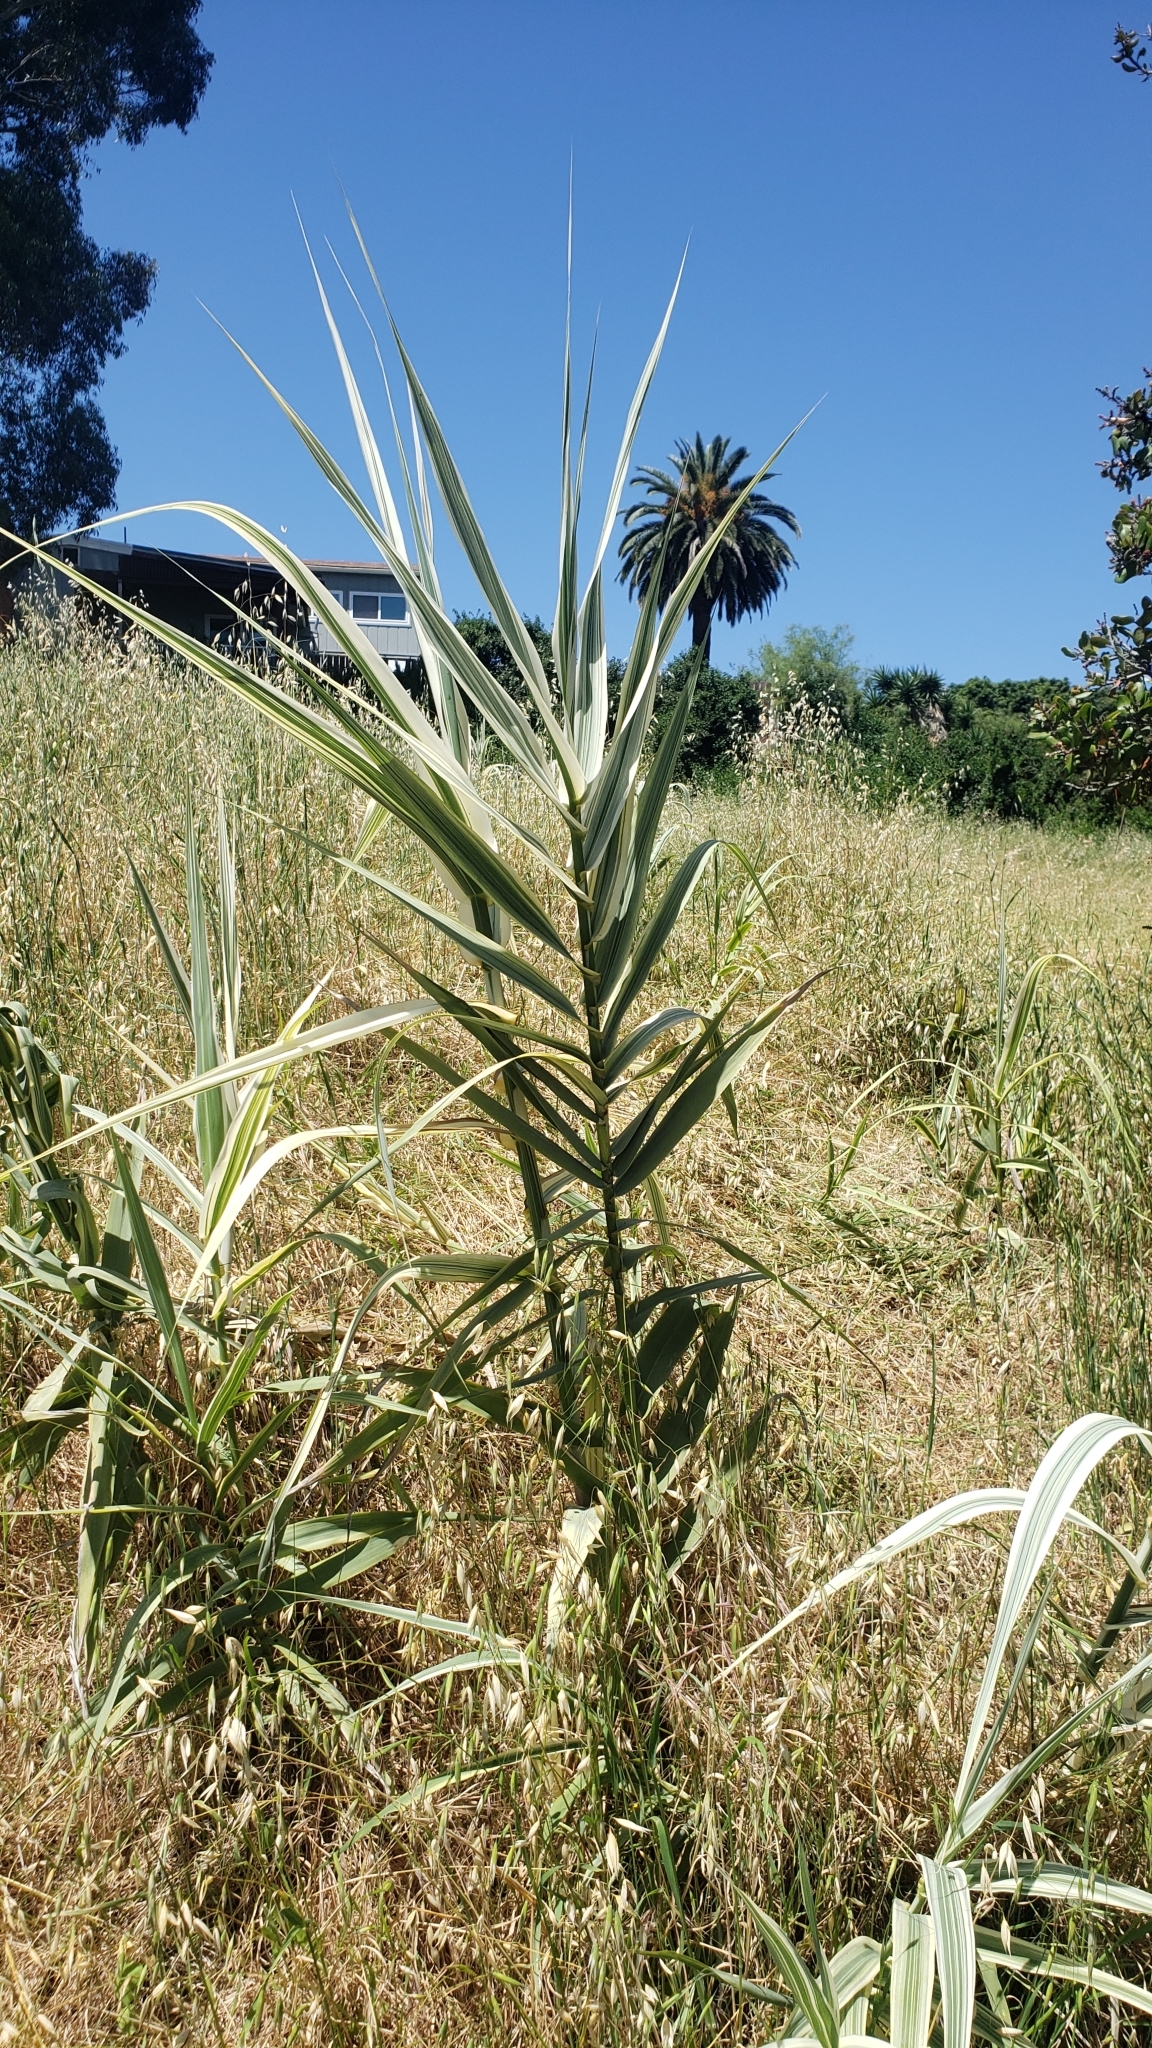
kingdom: Plantae
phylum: Tracheophyta
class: Liliopsida
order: Poales
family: Poaceae
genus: Arundo
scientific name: Arundo donax
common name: Giant reed
